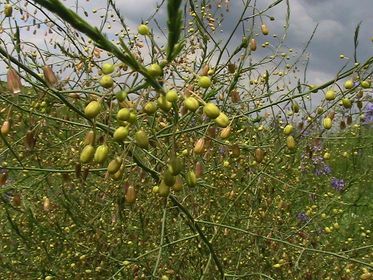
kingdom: Plantae
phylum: Tracheophyta
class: Liliopsida
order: Asparagales
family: Asparagaceae
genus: Asparagus
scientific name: Asparagus officinalis
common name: Garden asparagus
